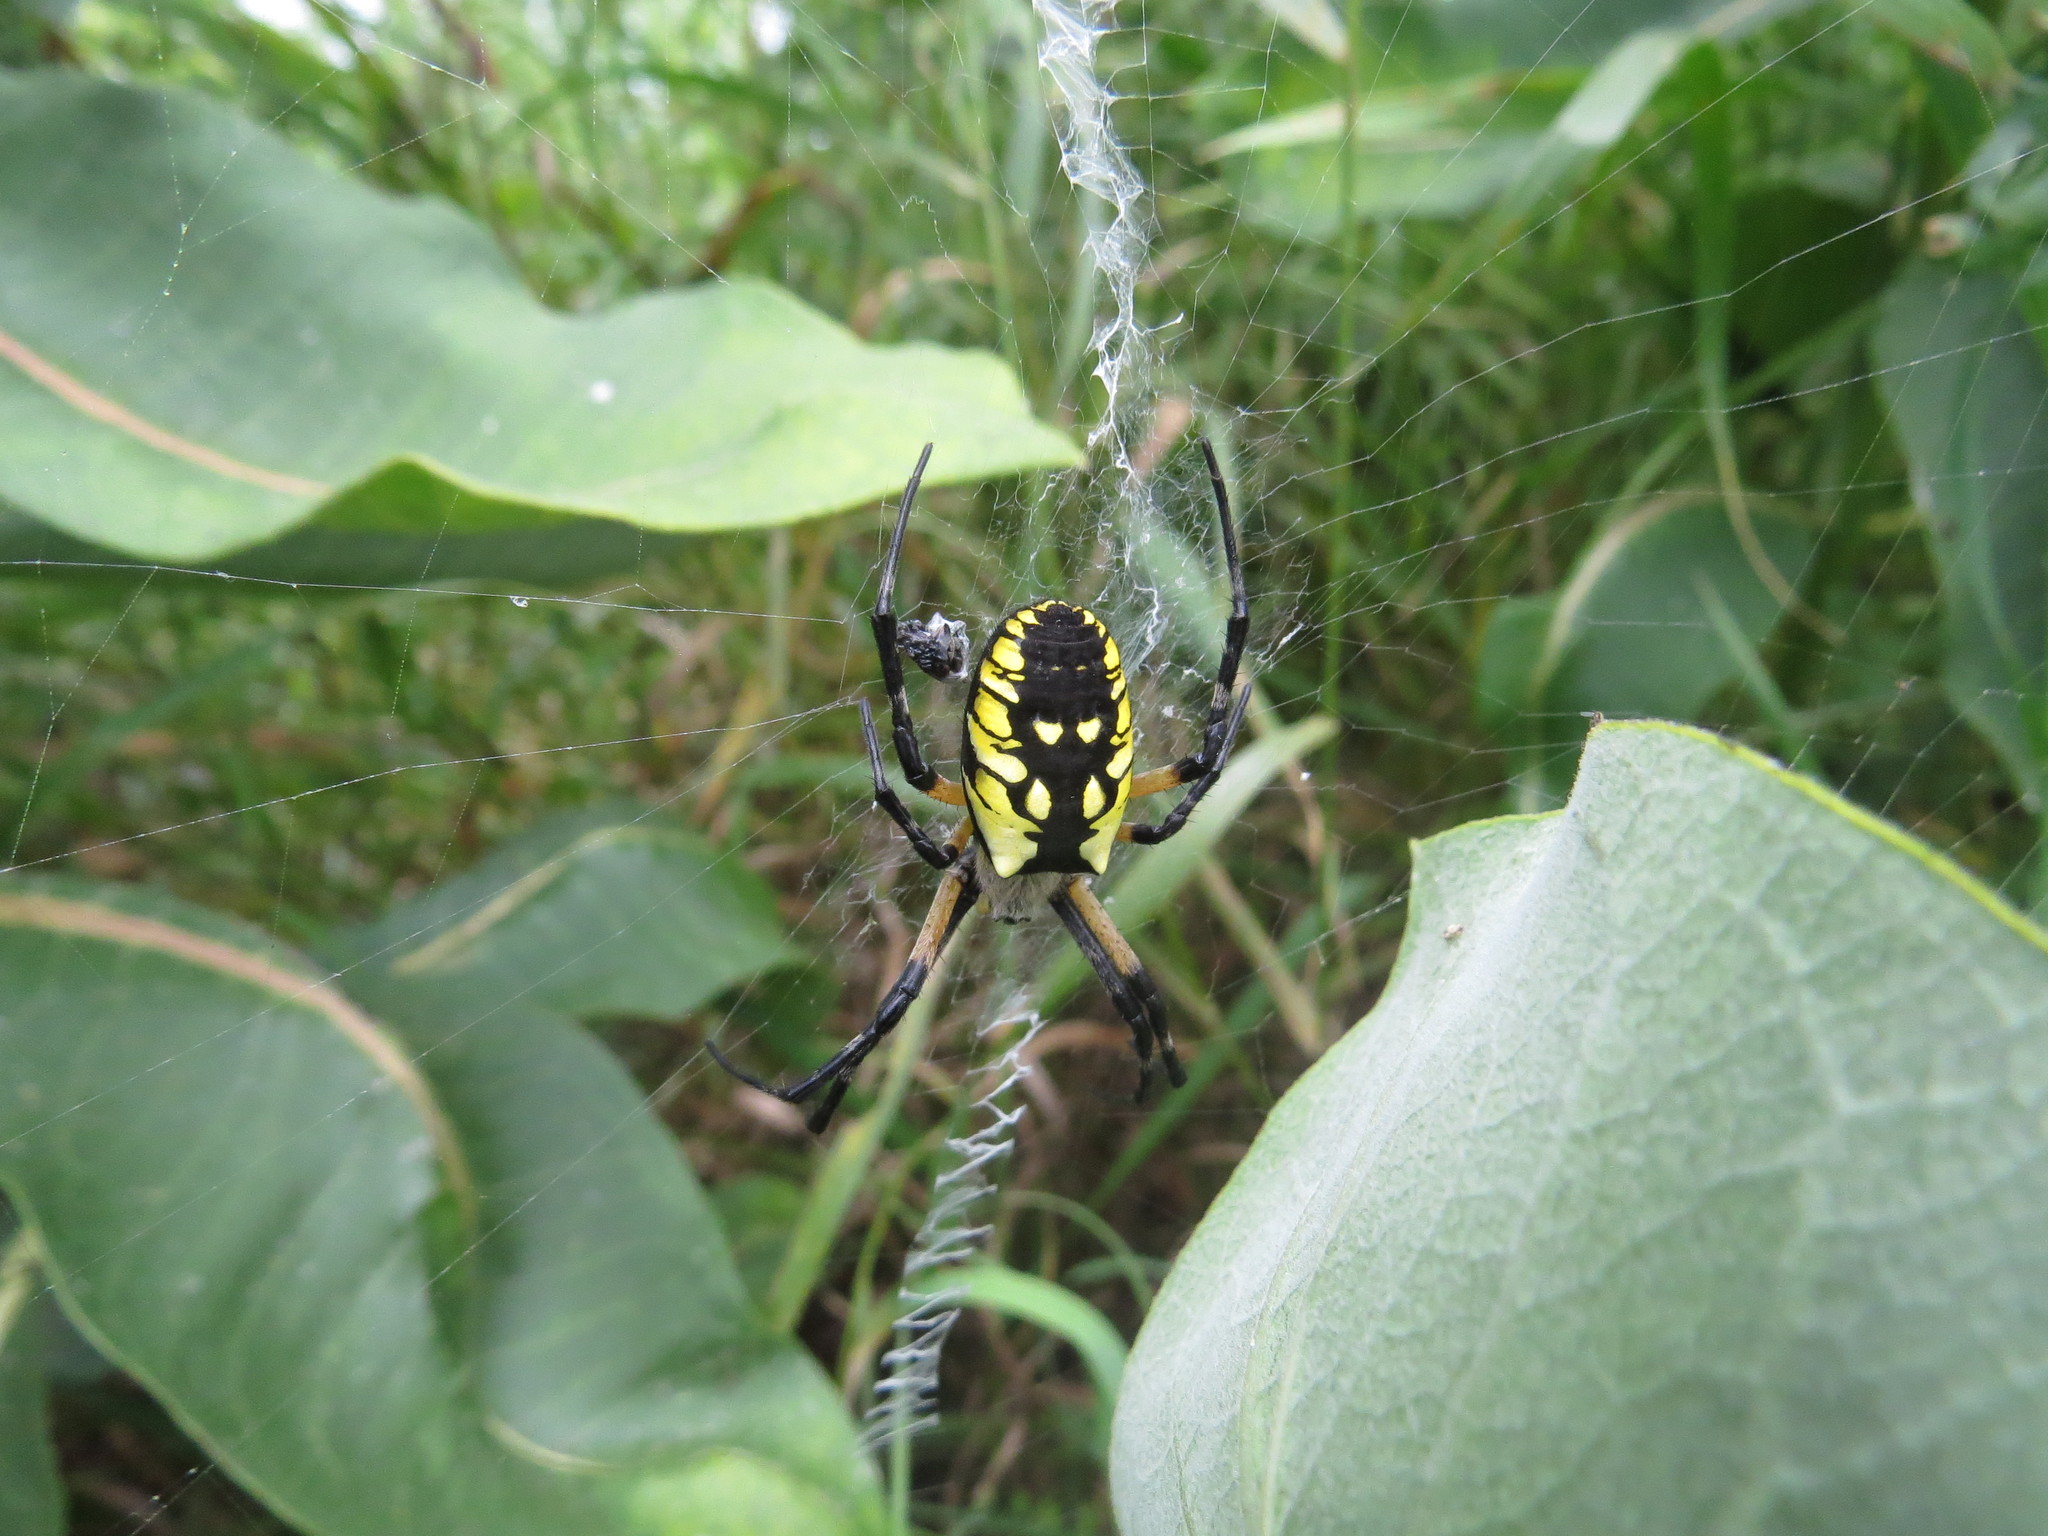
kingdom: Animalia
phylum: Arthropoda
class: Arachnida
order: Araneae
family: Araneidae
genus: Argiope
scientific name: Argiope aurantia
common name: Orb weavers
